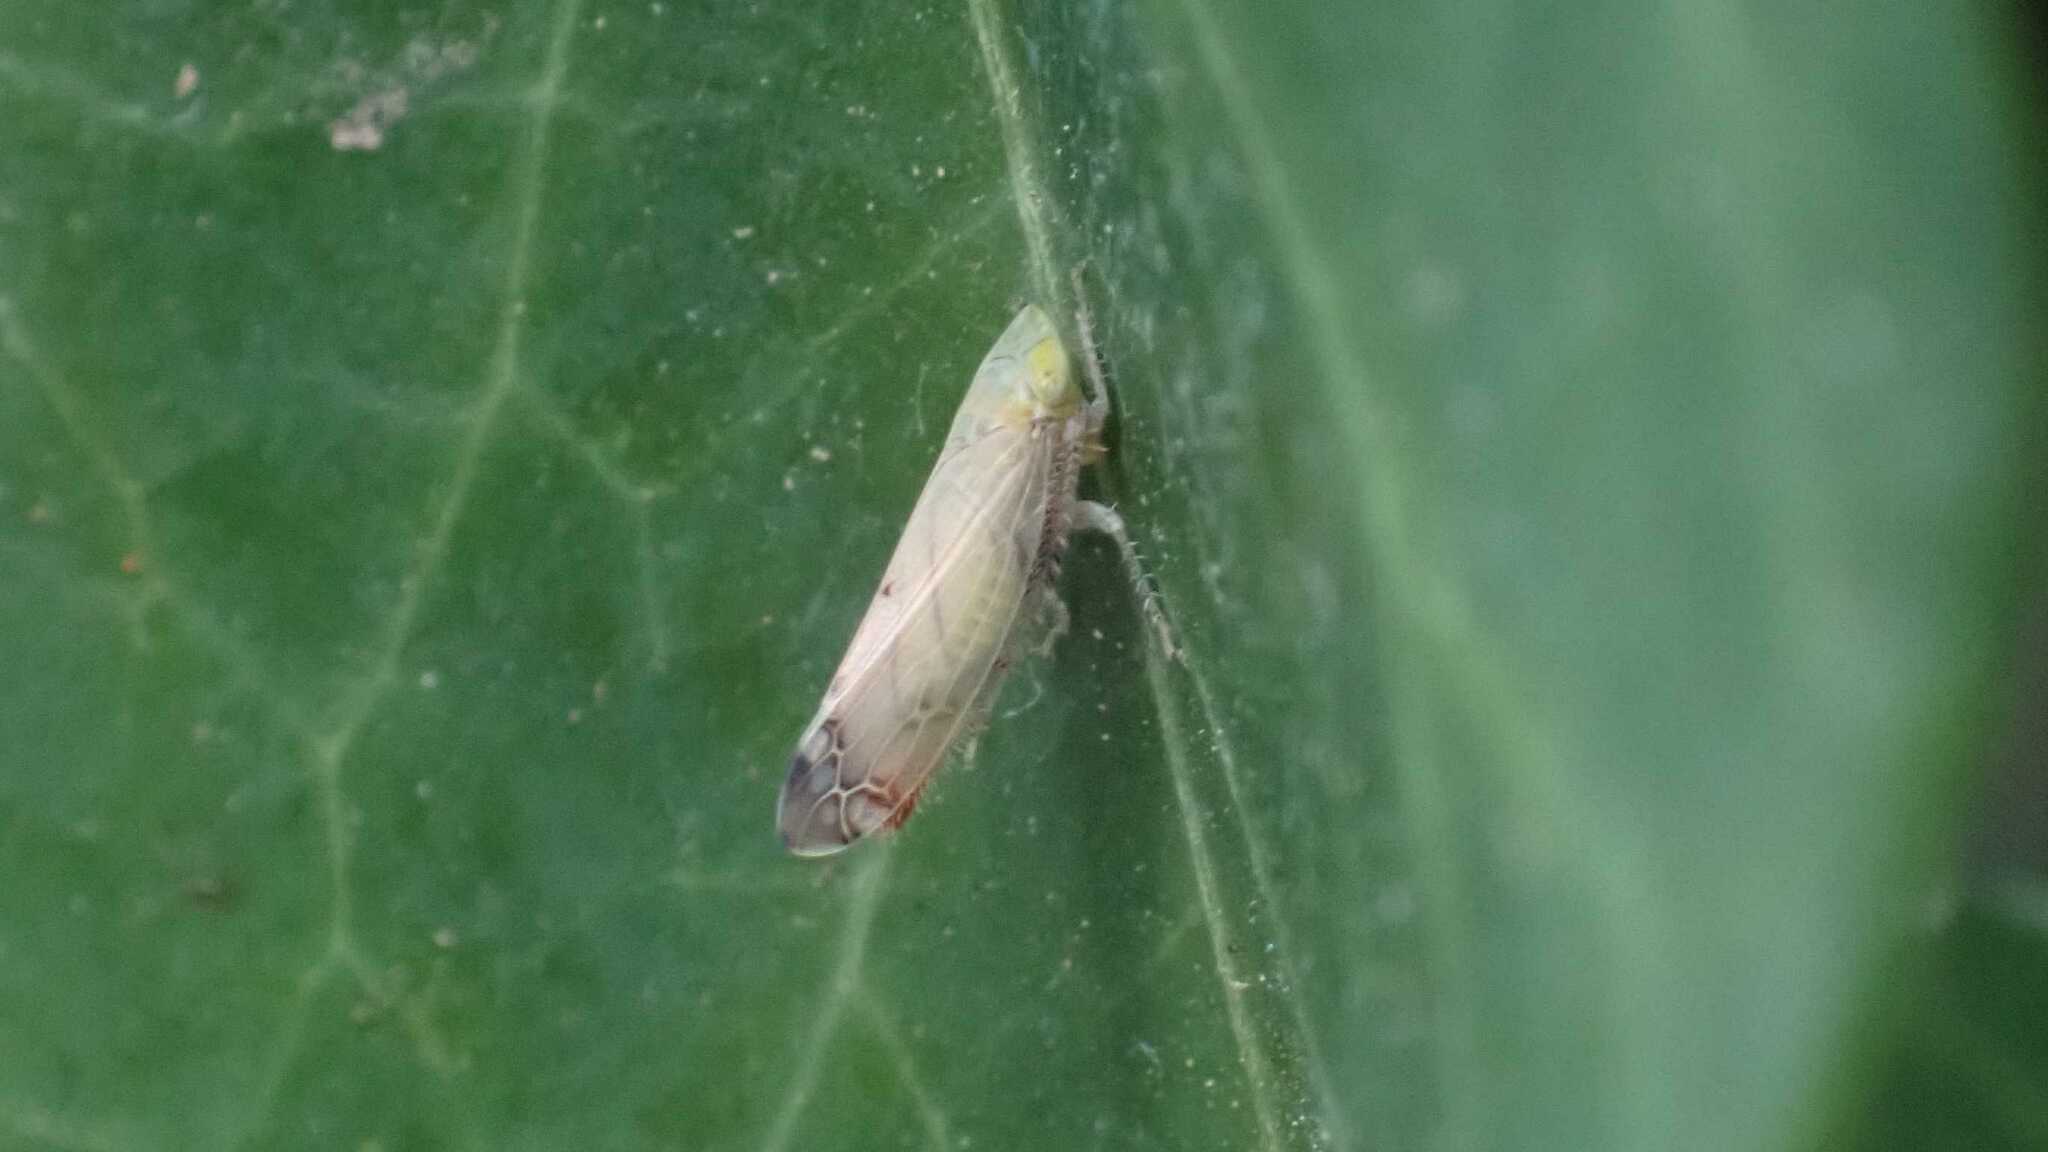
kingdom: Animalia
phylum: Arthropoda
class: Insecta
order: Hemiptera
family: Cicadellidae
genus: Synophropsis
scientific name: Synophropsis lauri
